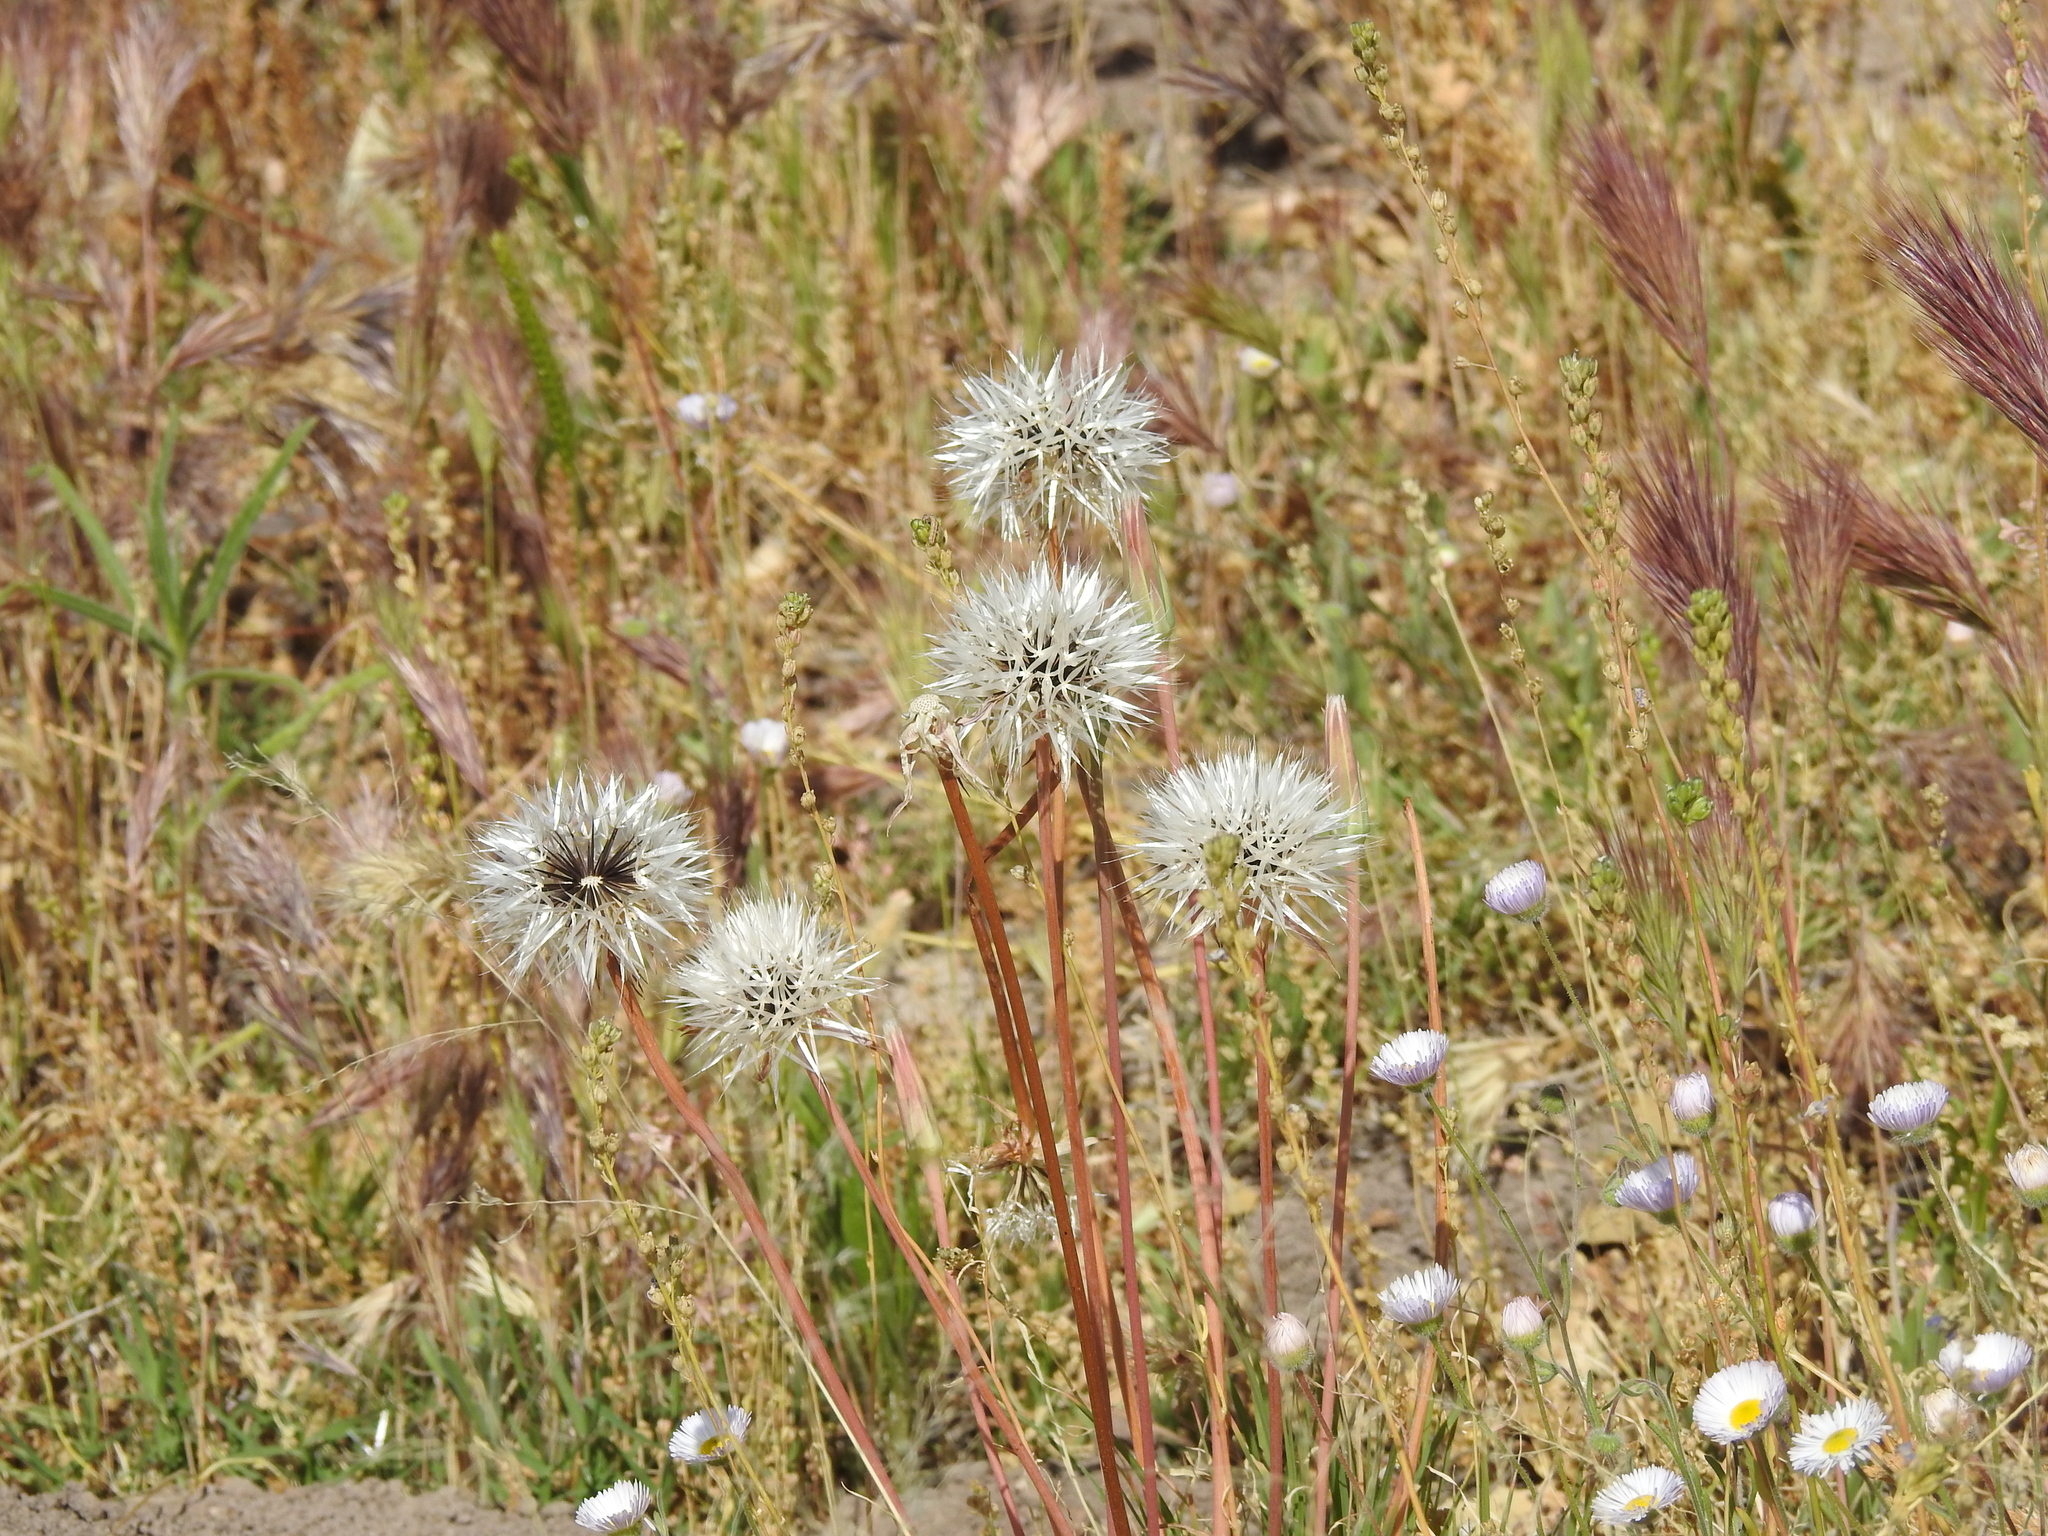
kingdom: Plantae
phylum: Tracheophyta
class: Magnoliopsida
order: Asterales
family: Asteraceae
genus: Microseris
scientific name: Microseris lindleyi
